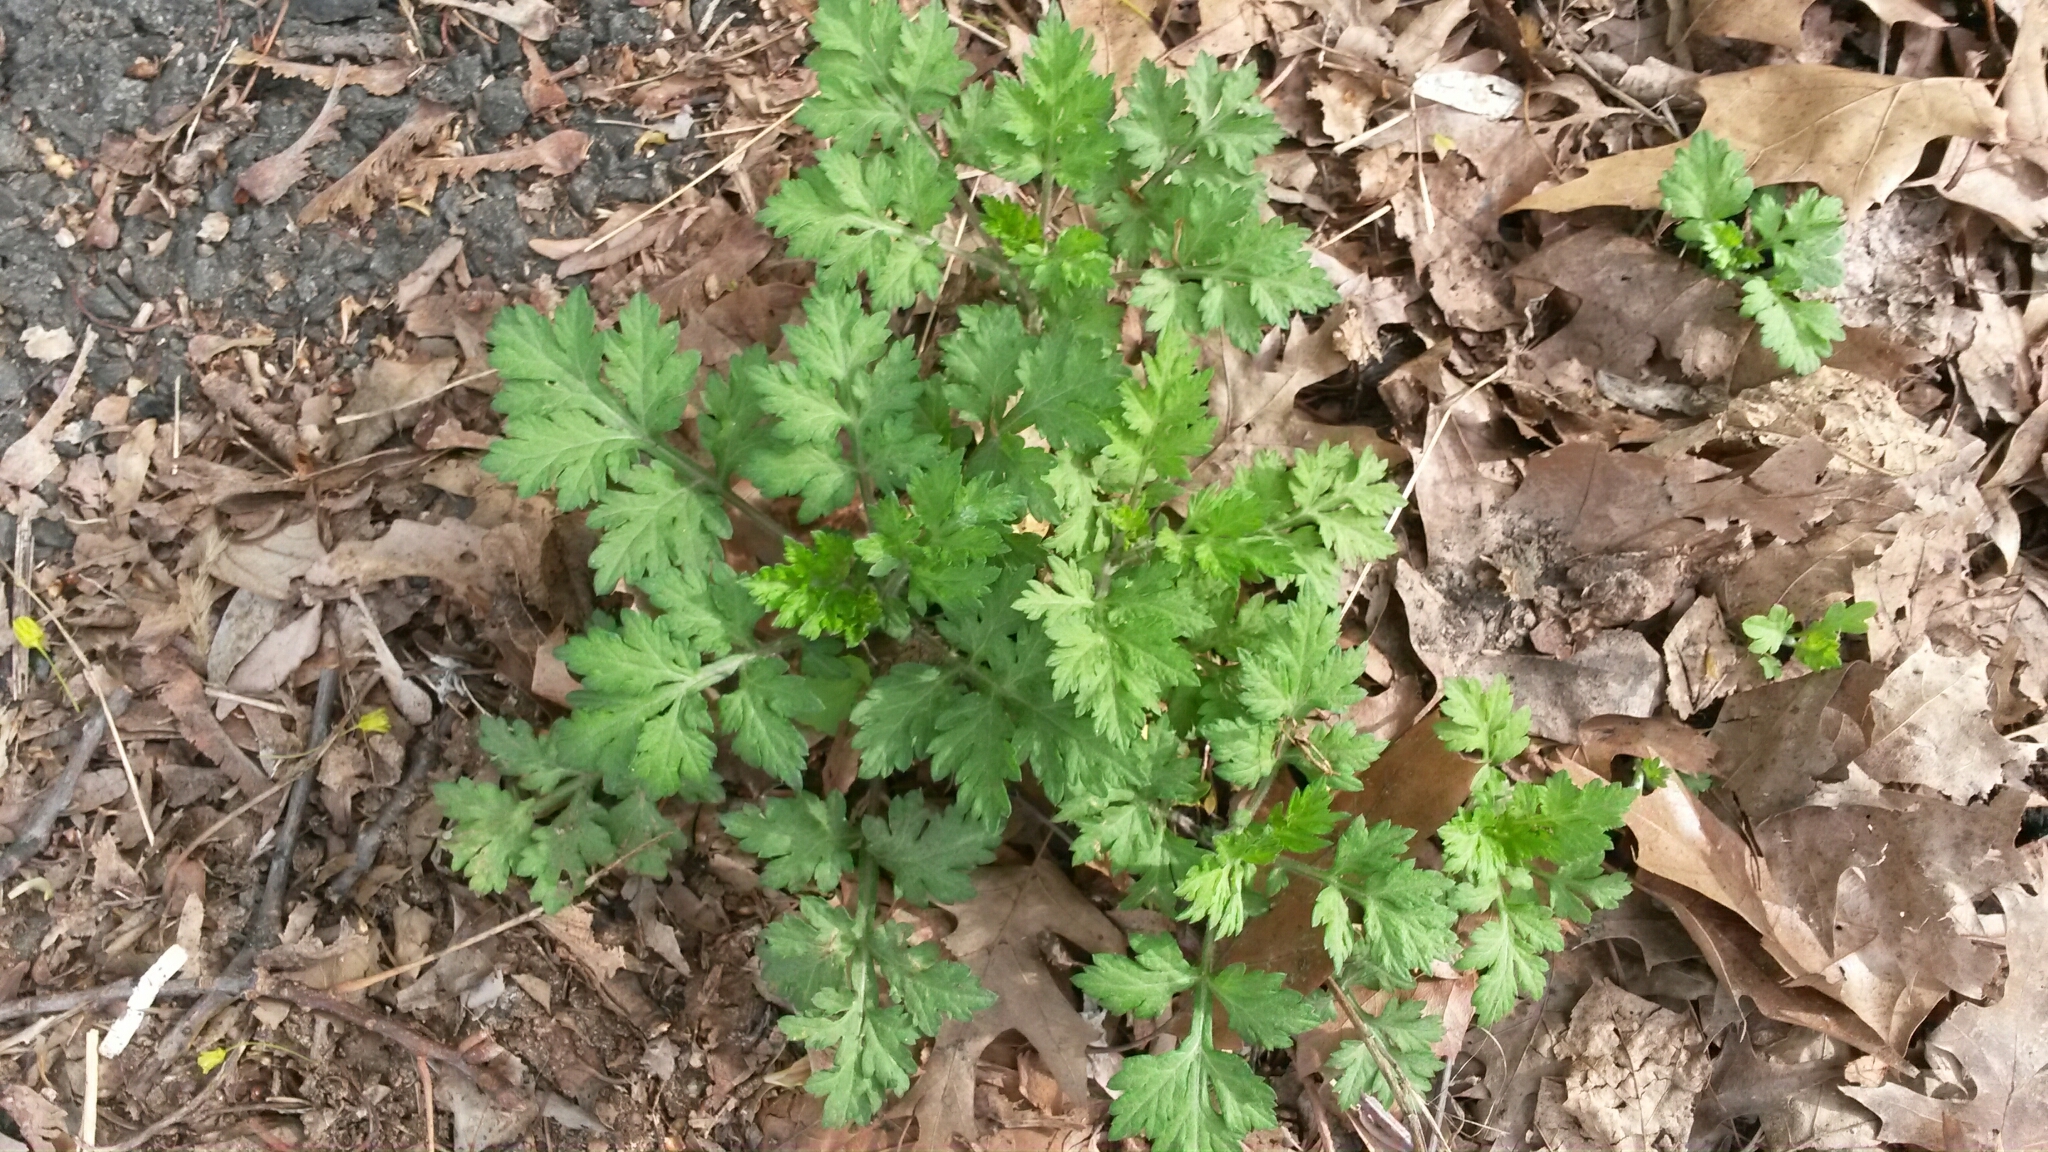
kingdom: Plantae
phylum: Tracheophyta
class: Magnoliopsida
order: Asterales
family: Asteraceae
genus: Artemisia
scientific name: Artemisia vulgaris
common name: Mugwort
